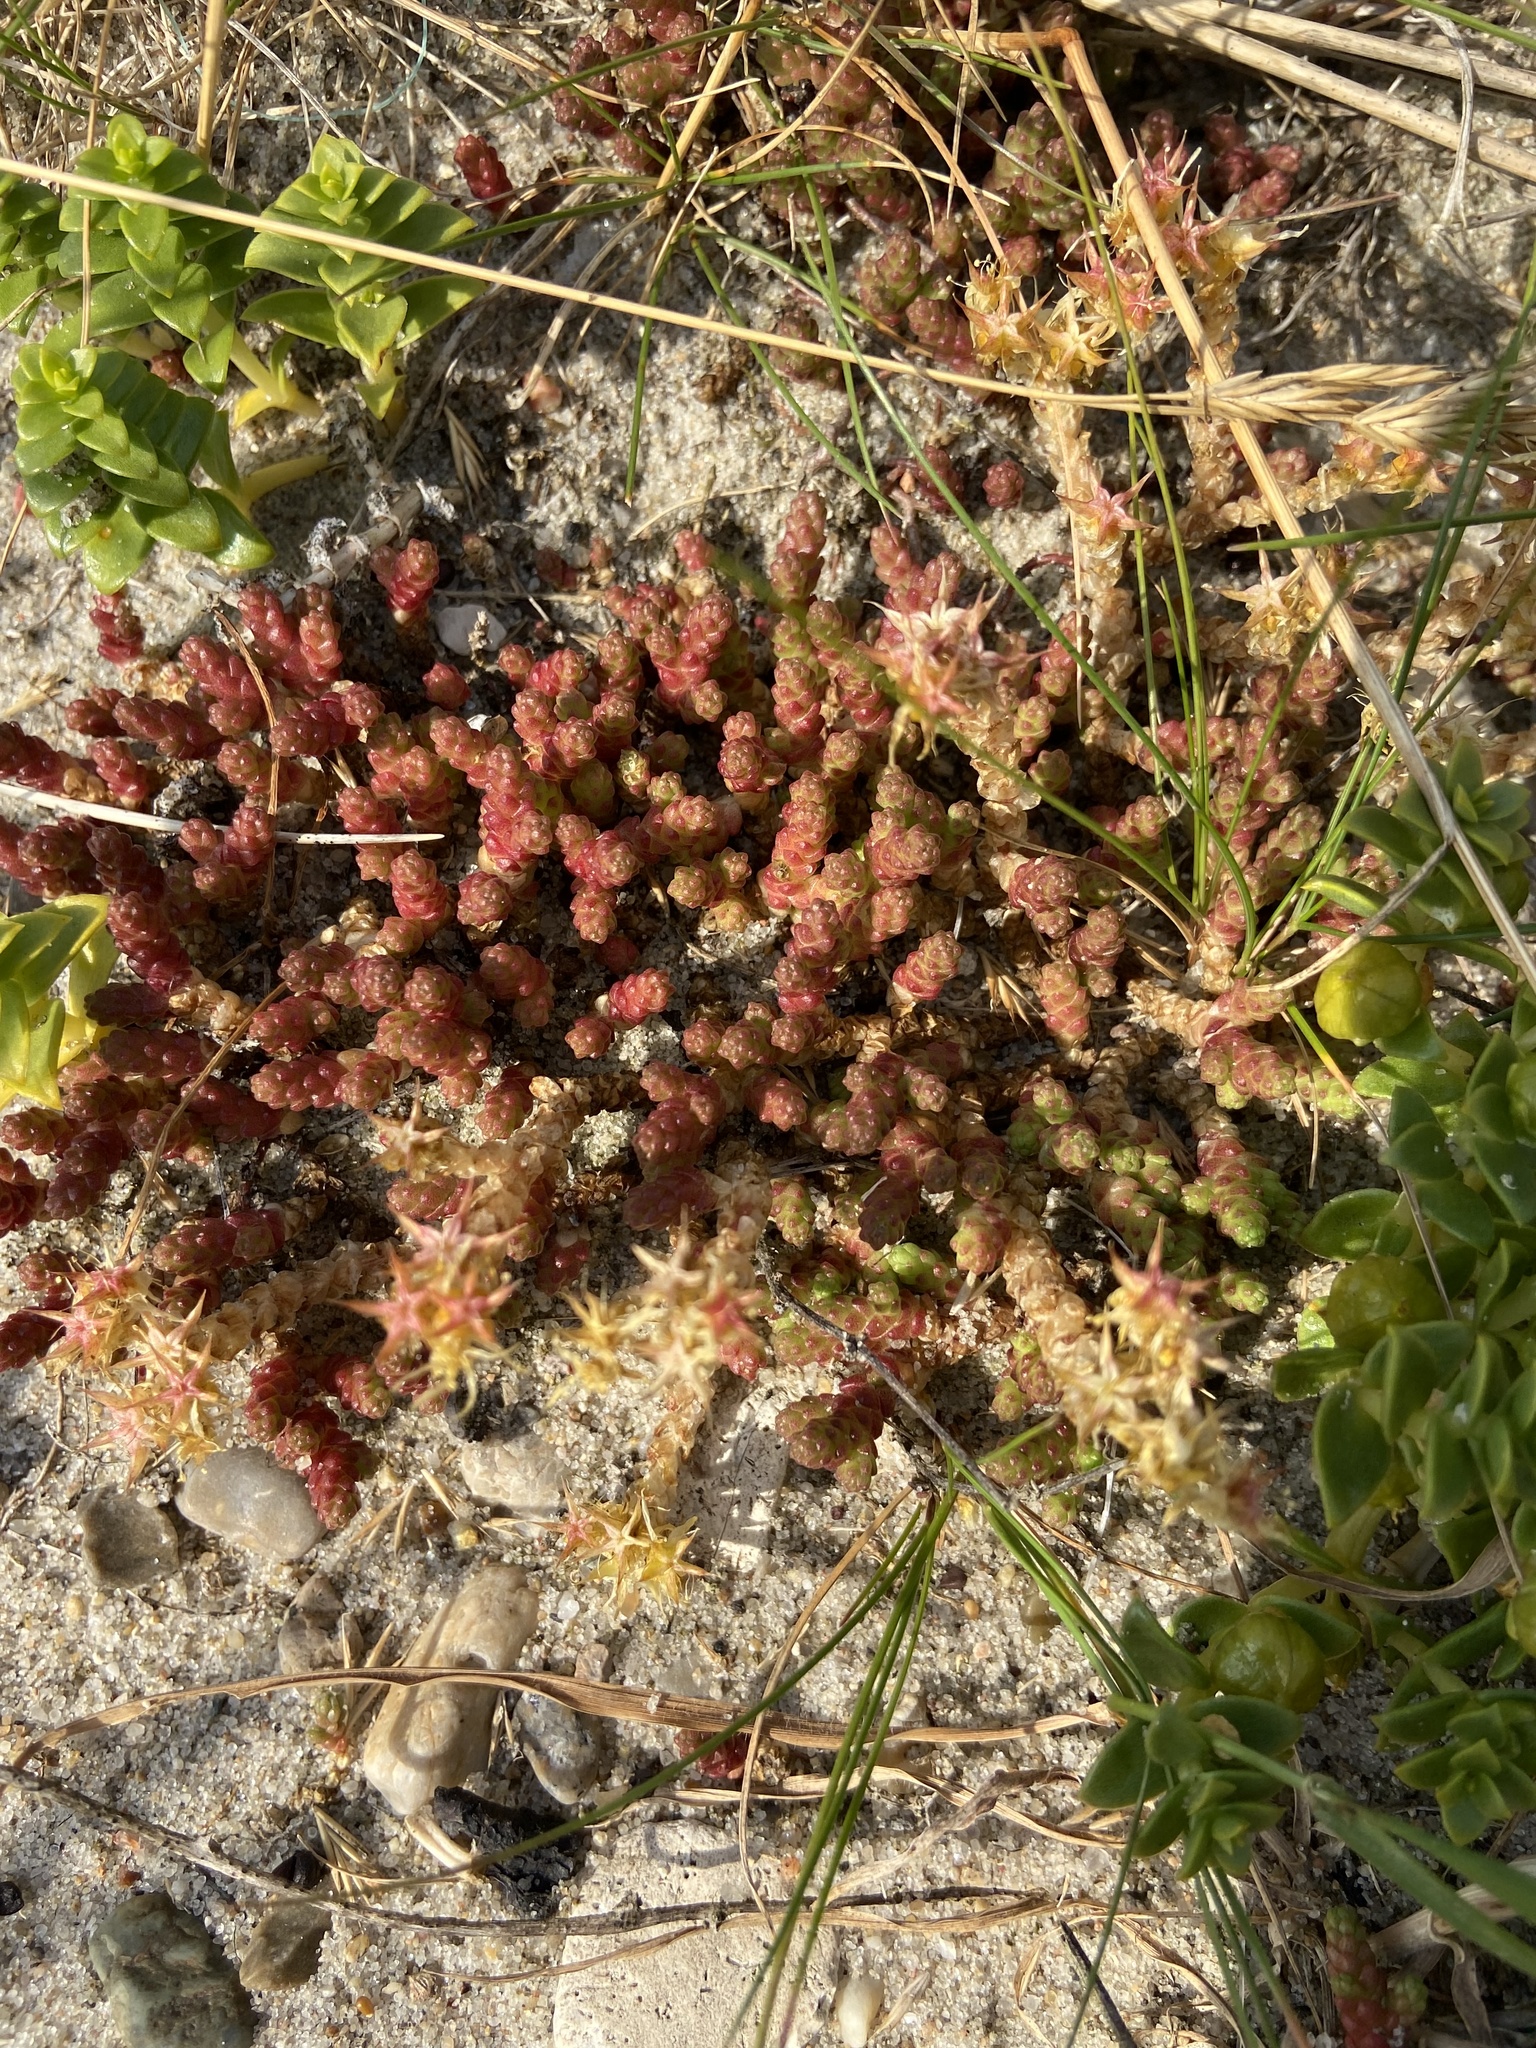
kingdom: Plantae
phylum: Tracheophyta
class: Magnoliopsida
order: Saxifragales
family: Crassulaceae
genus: Sedum
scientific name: Sedum acre
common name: Biting stonecrop
